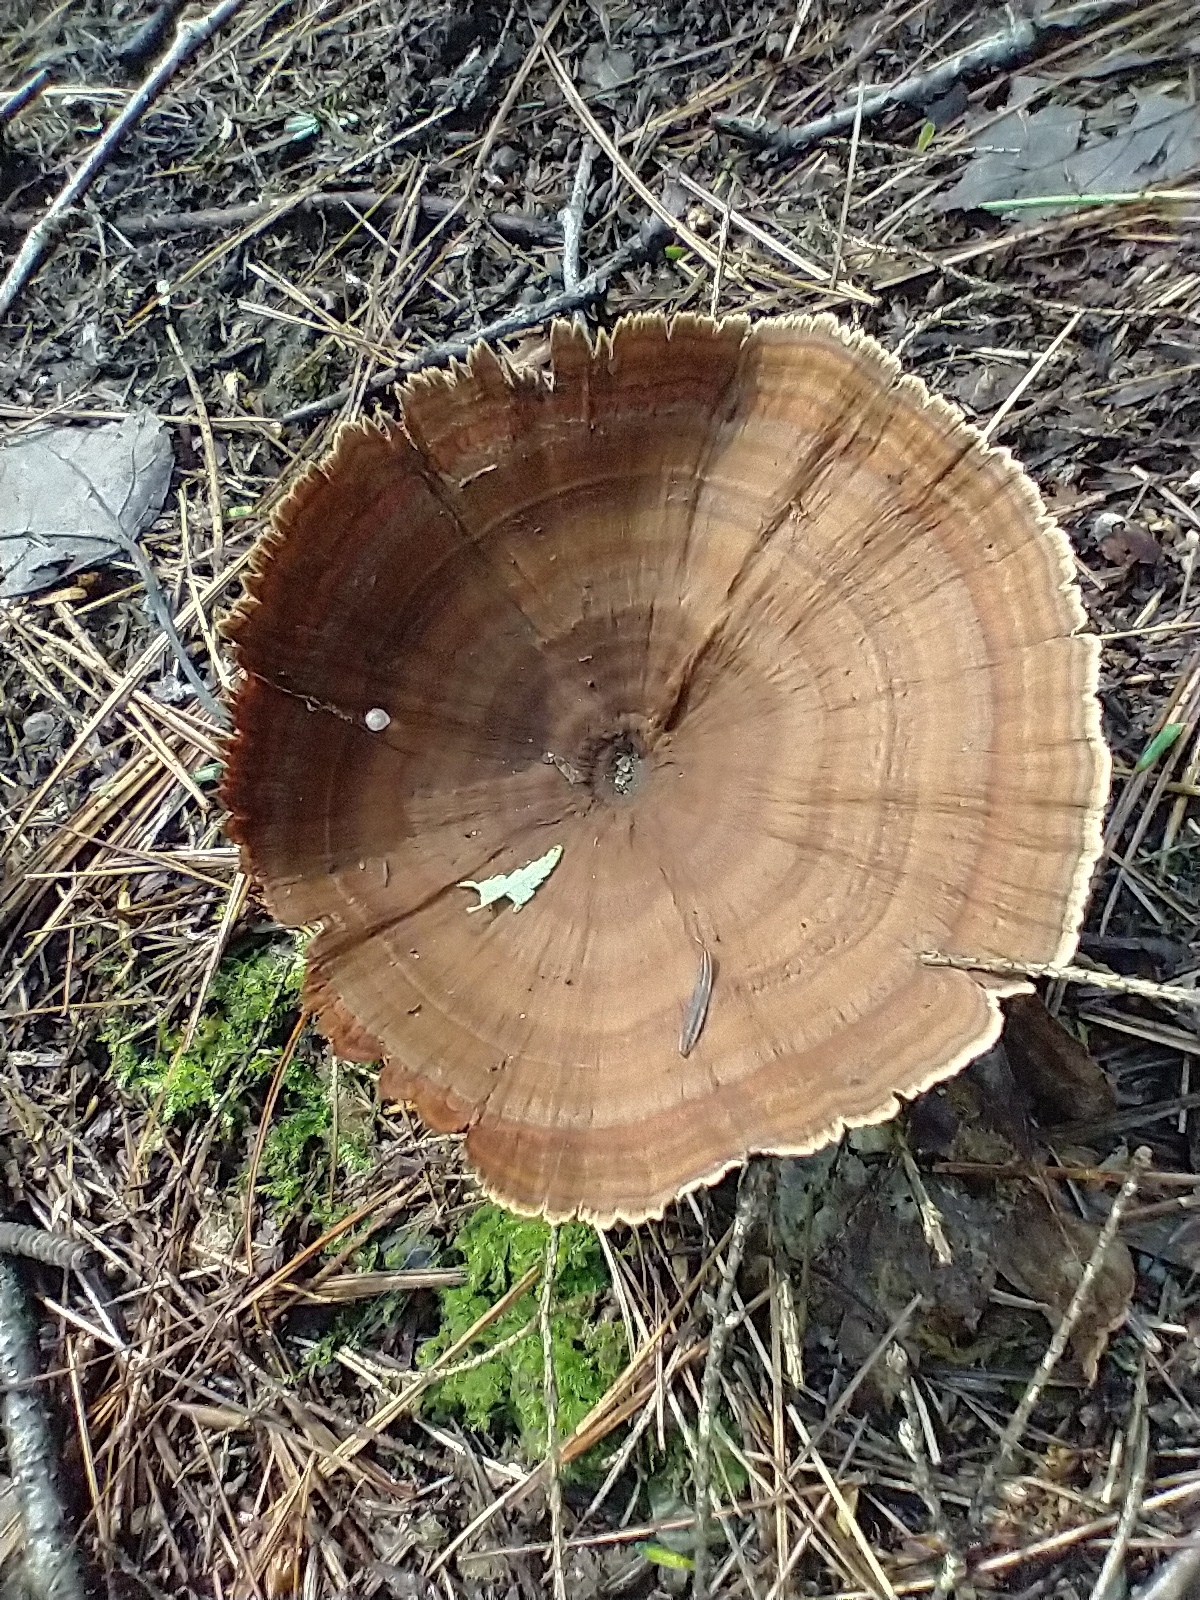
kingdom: Fungi
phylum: Basidiomycota
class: Agaricomycetes
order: Hymenochaetales
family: Hymenochaetaceae
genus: Coltricia
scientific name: Coltricia perennis
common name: Tiger's eye
